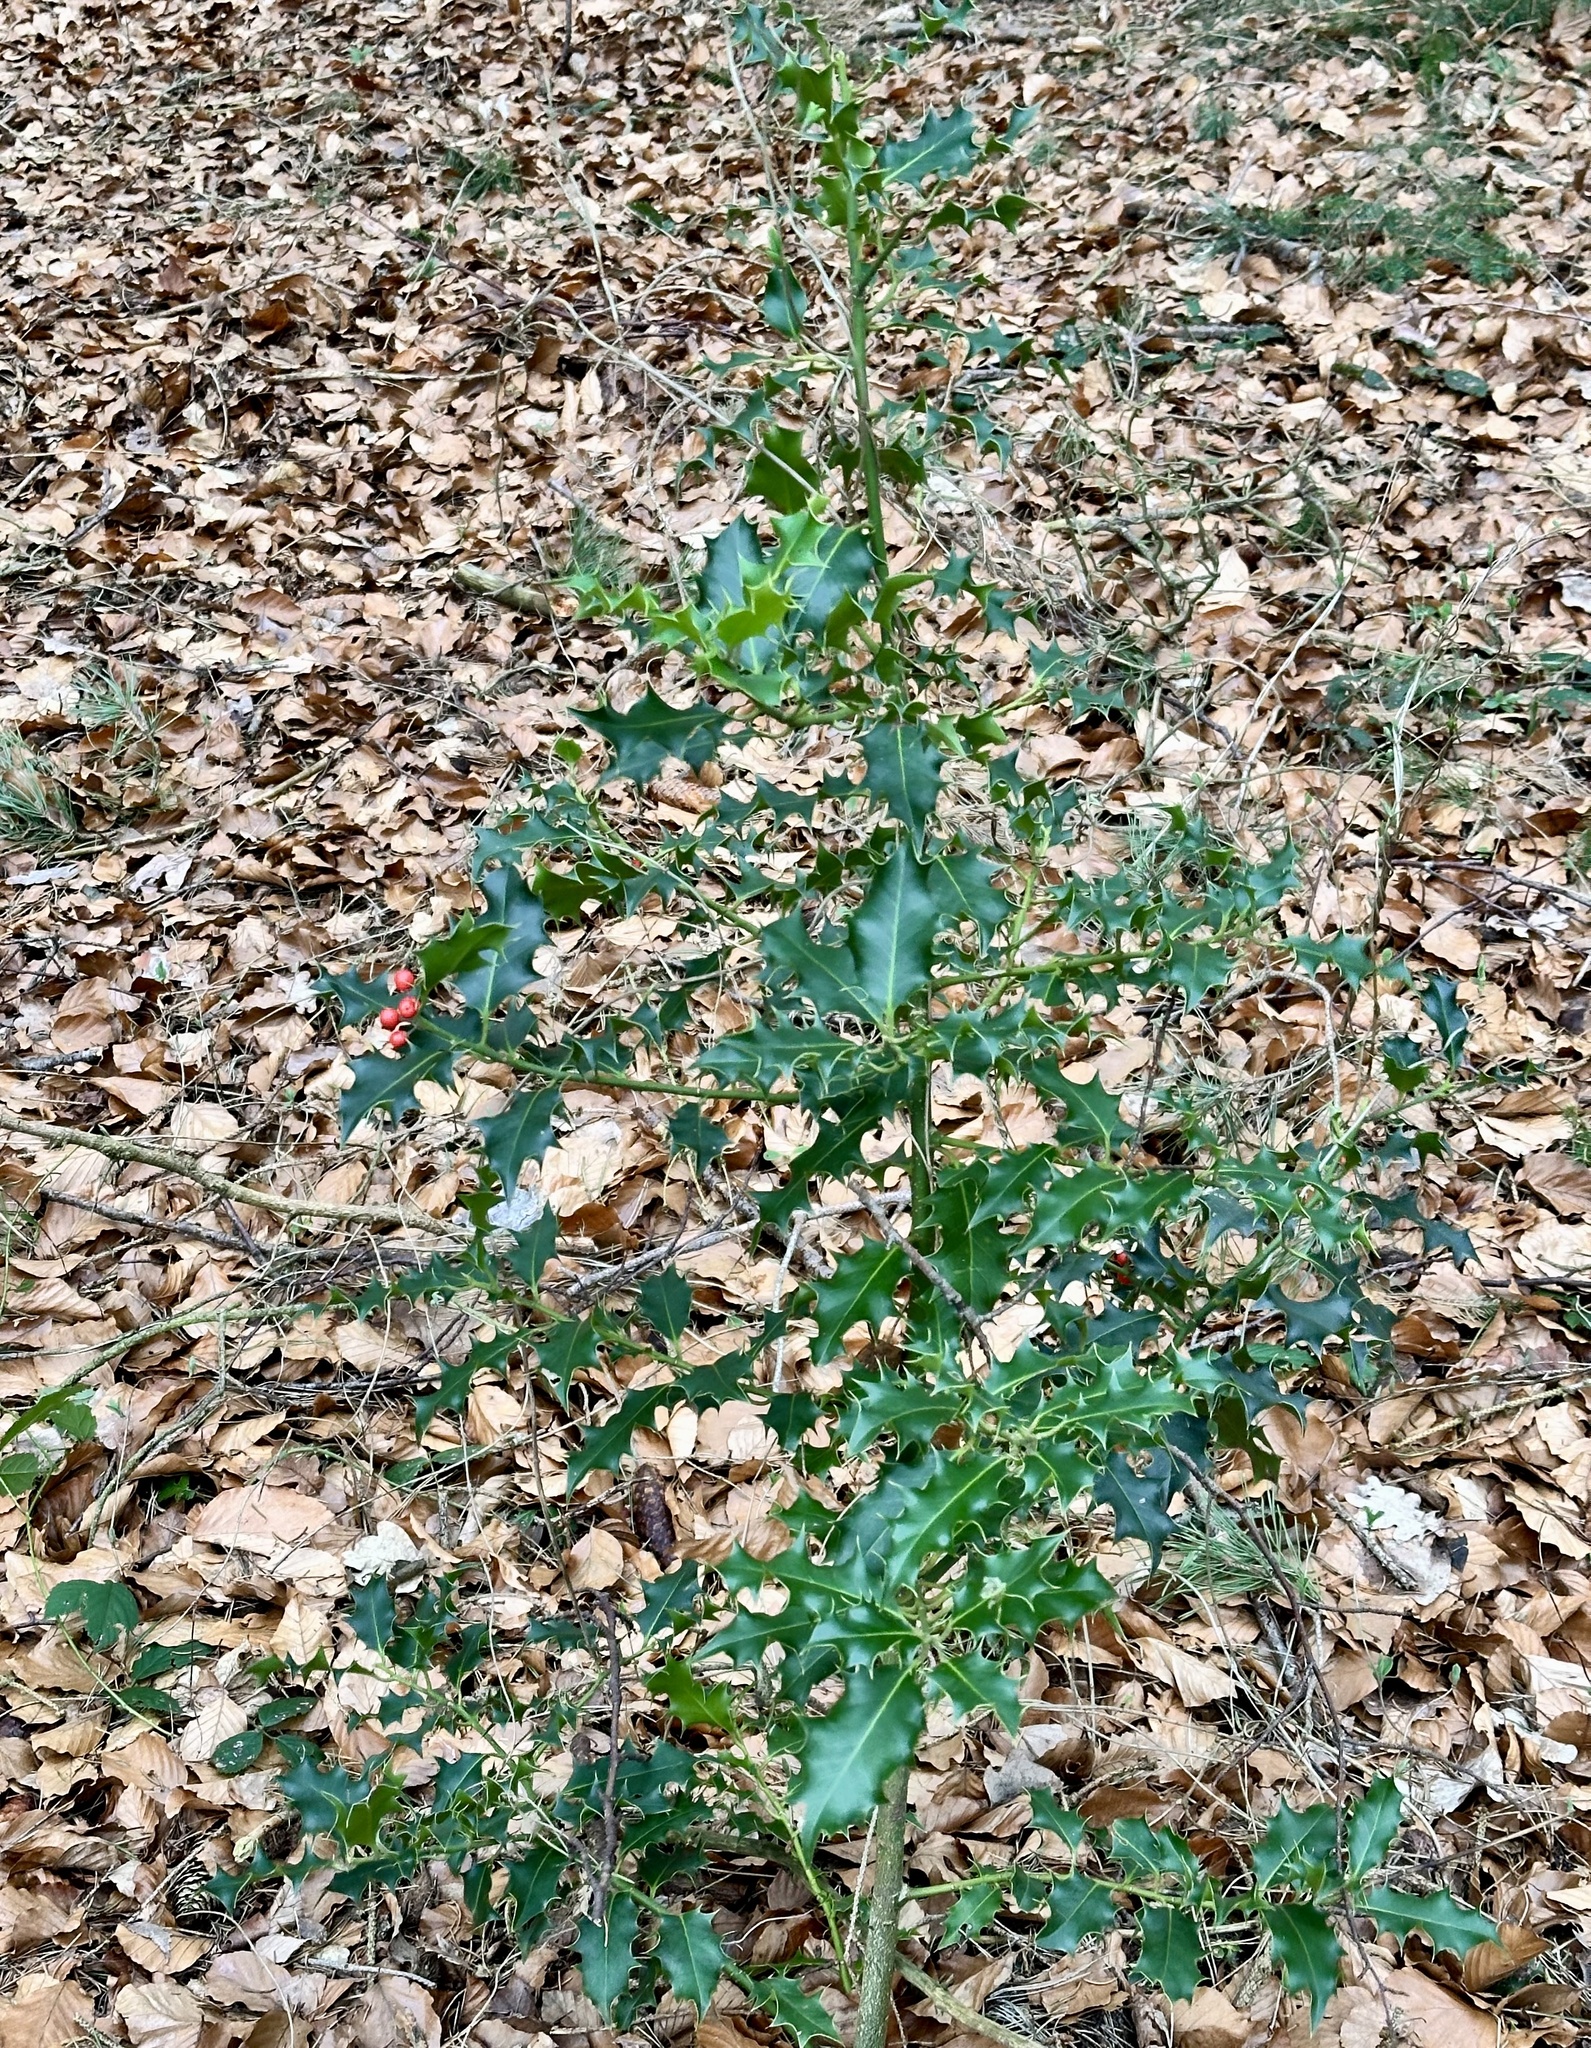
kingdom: Plantae
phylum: Tracheophyta
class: Magnoliopsida
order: Aquifoliales
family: Aquifoliaceae
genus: Ilex
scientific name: Ilex aquifolium
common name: English holly
